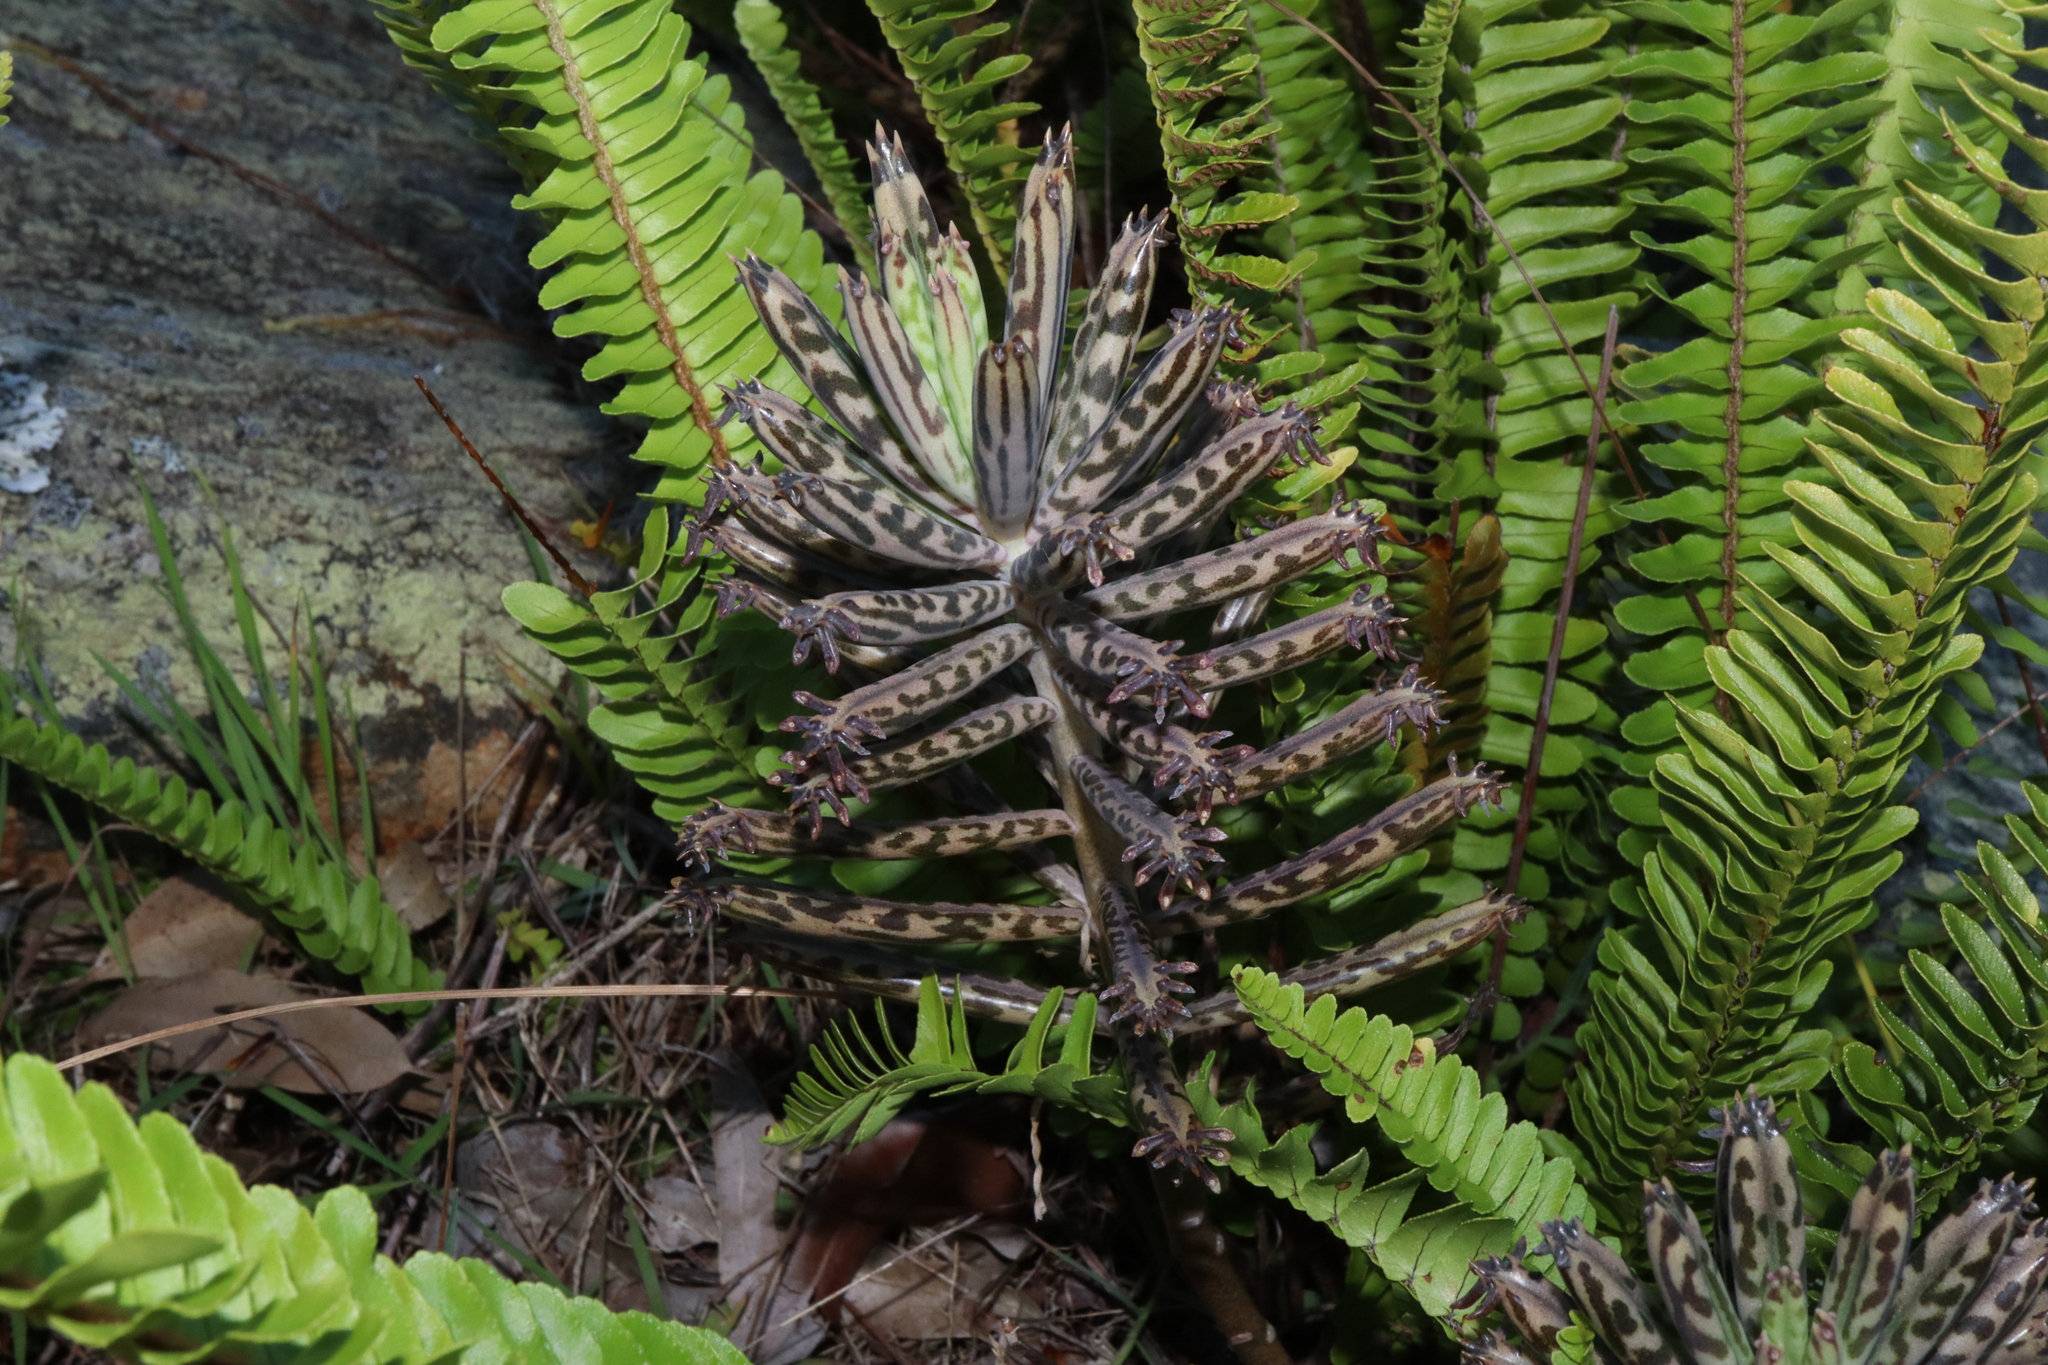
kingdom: Plantae
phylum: Tracheophyta
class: Magnoliopsida
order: Saxifragales
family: Crassulaceae
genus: Kalanchoe
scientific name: Kalanchoe delagoensis
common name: Chandelier plant
